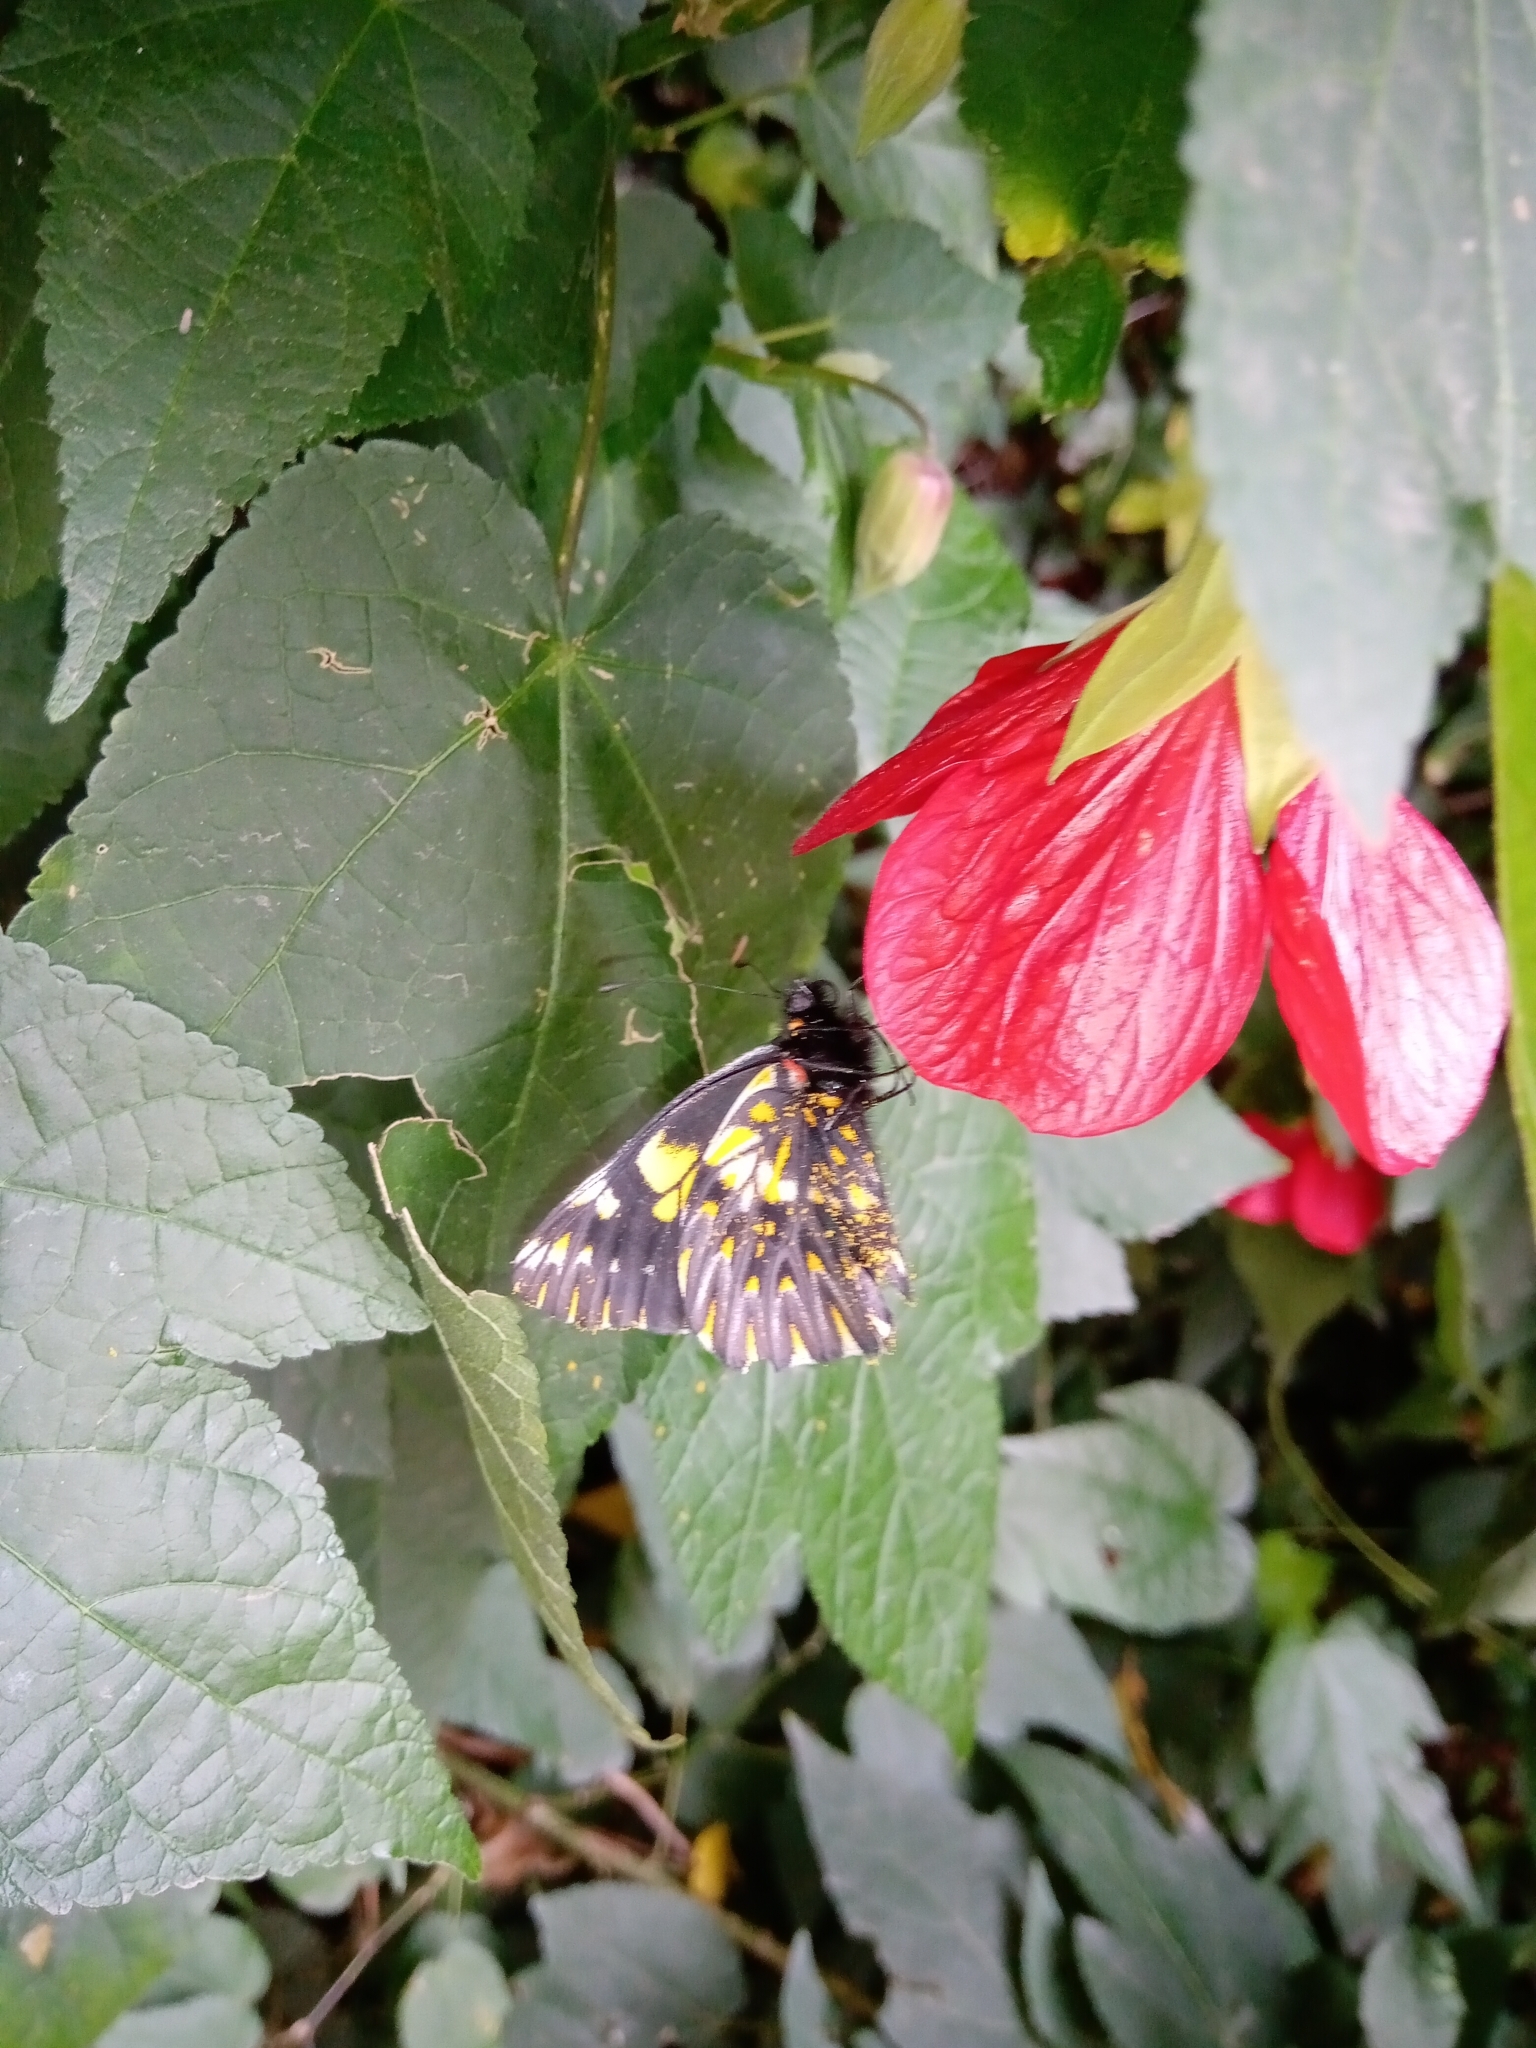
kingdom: Animalia
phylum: Arthropoda
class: Insecta
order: Lepidoptera
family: Pieridae
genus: Archonias
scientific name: Archonias teutila
